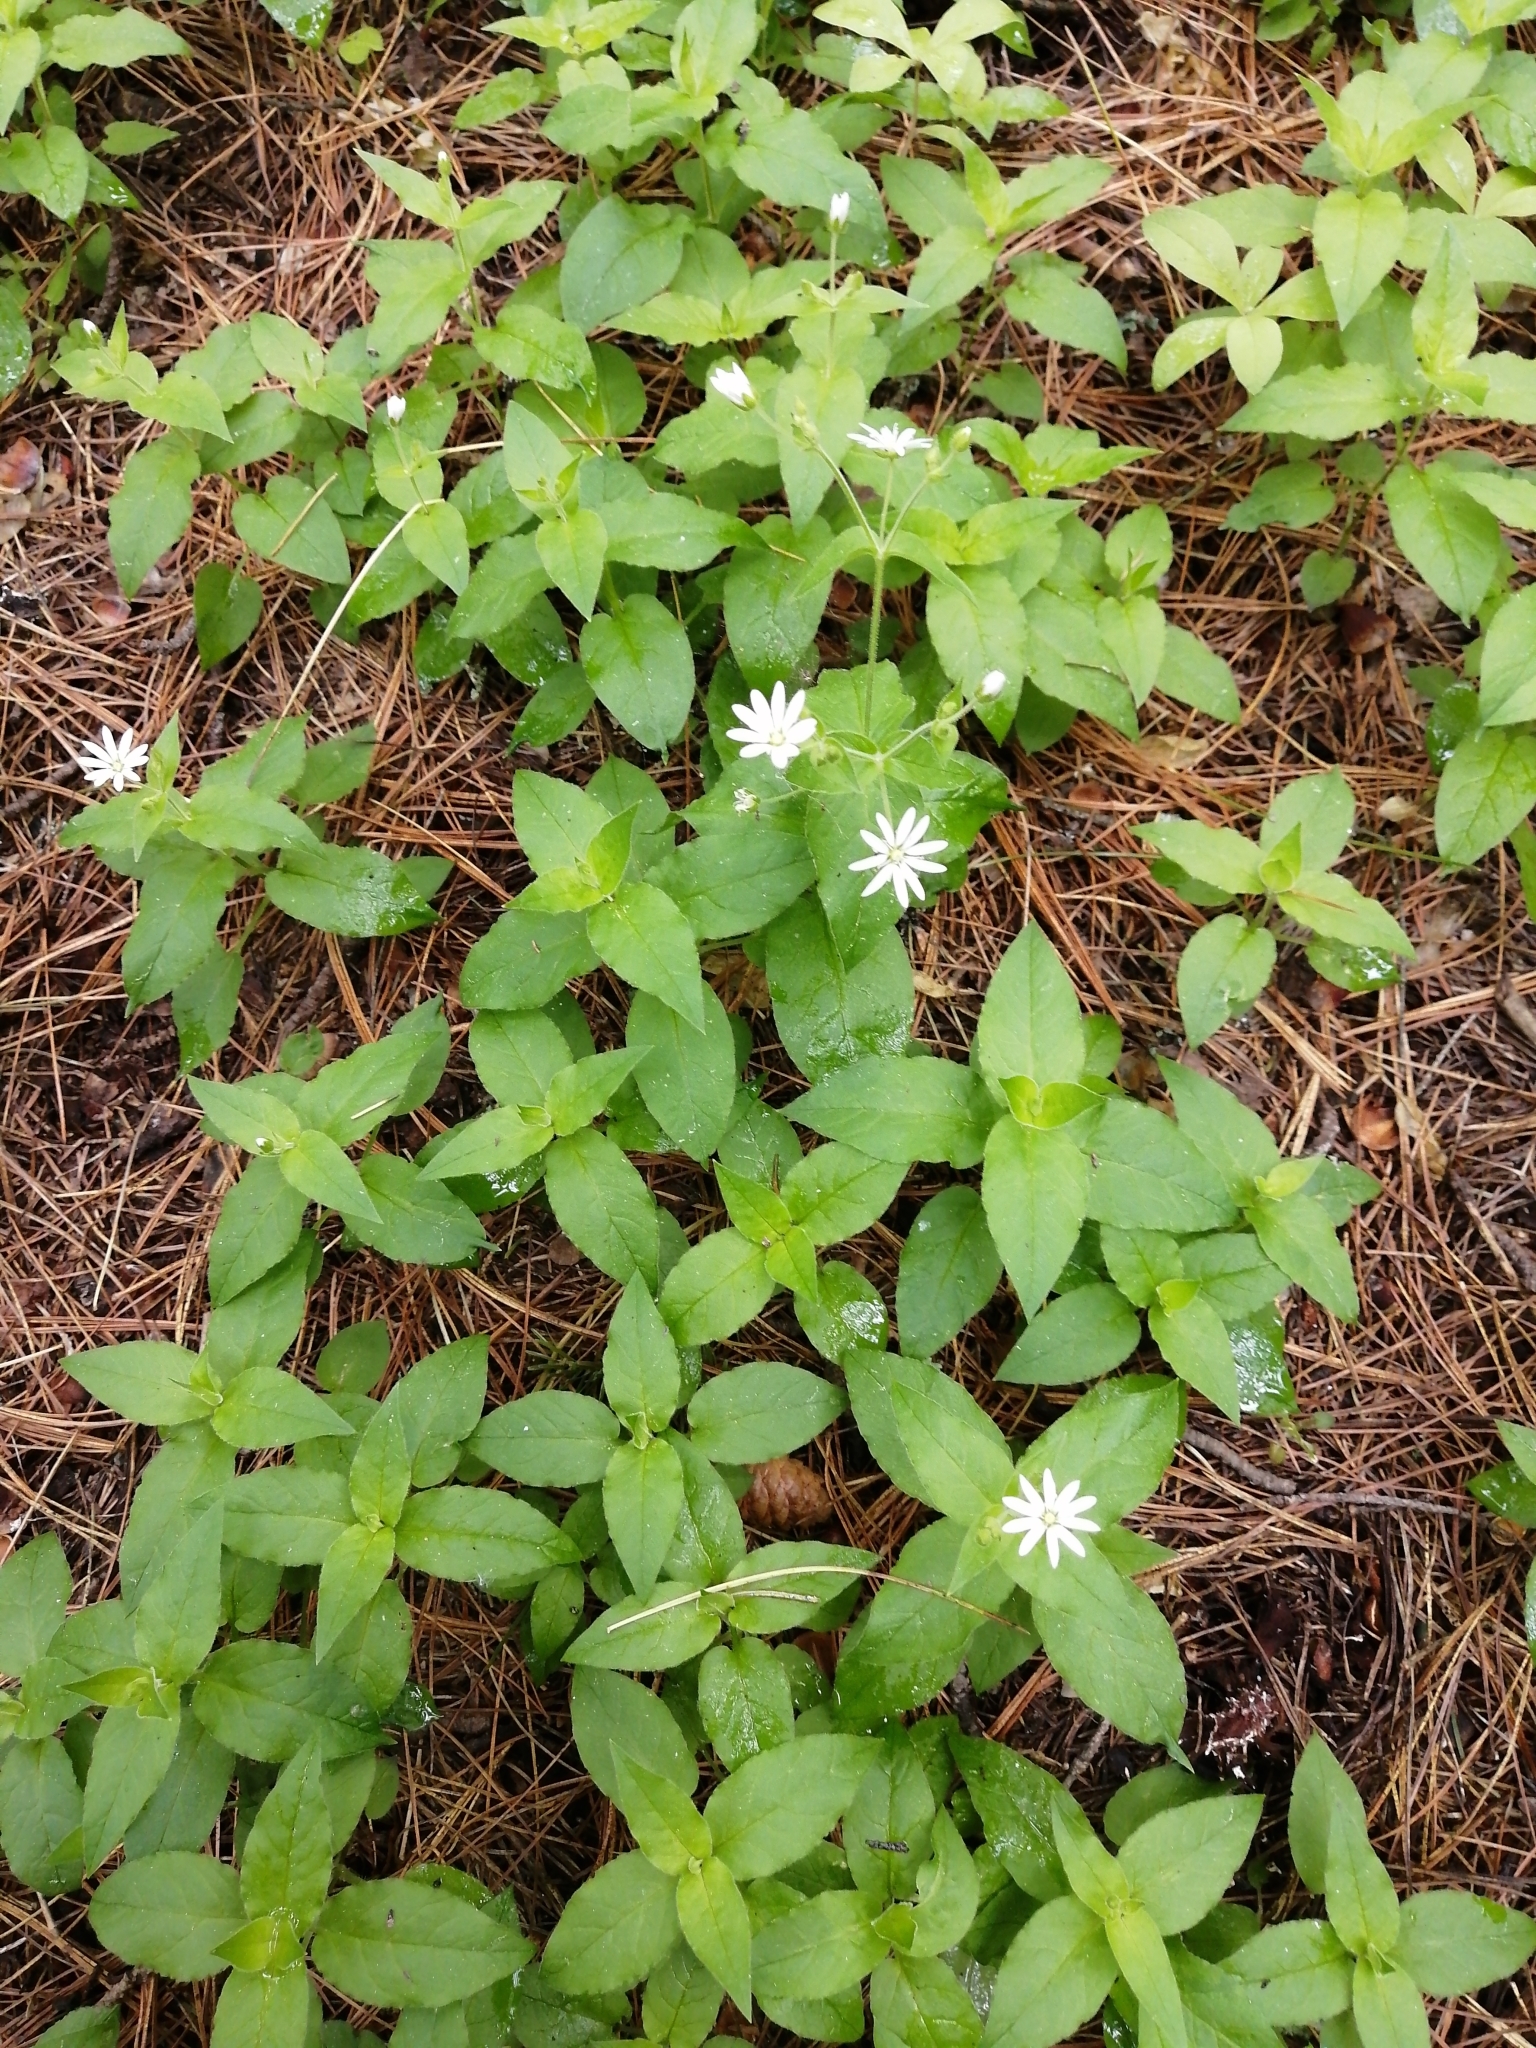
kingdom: Plantae
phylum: Tracheophyta
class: Magnoliopsida
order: Caryophyllales
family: Caryophyllaceae
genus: Stellaria
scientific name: Stellaria bungeana
